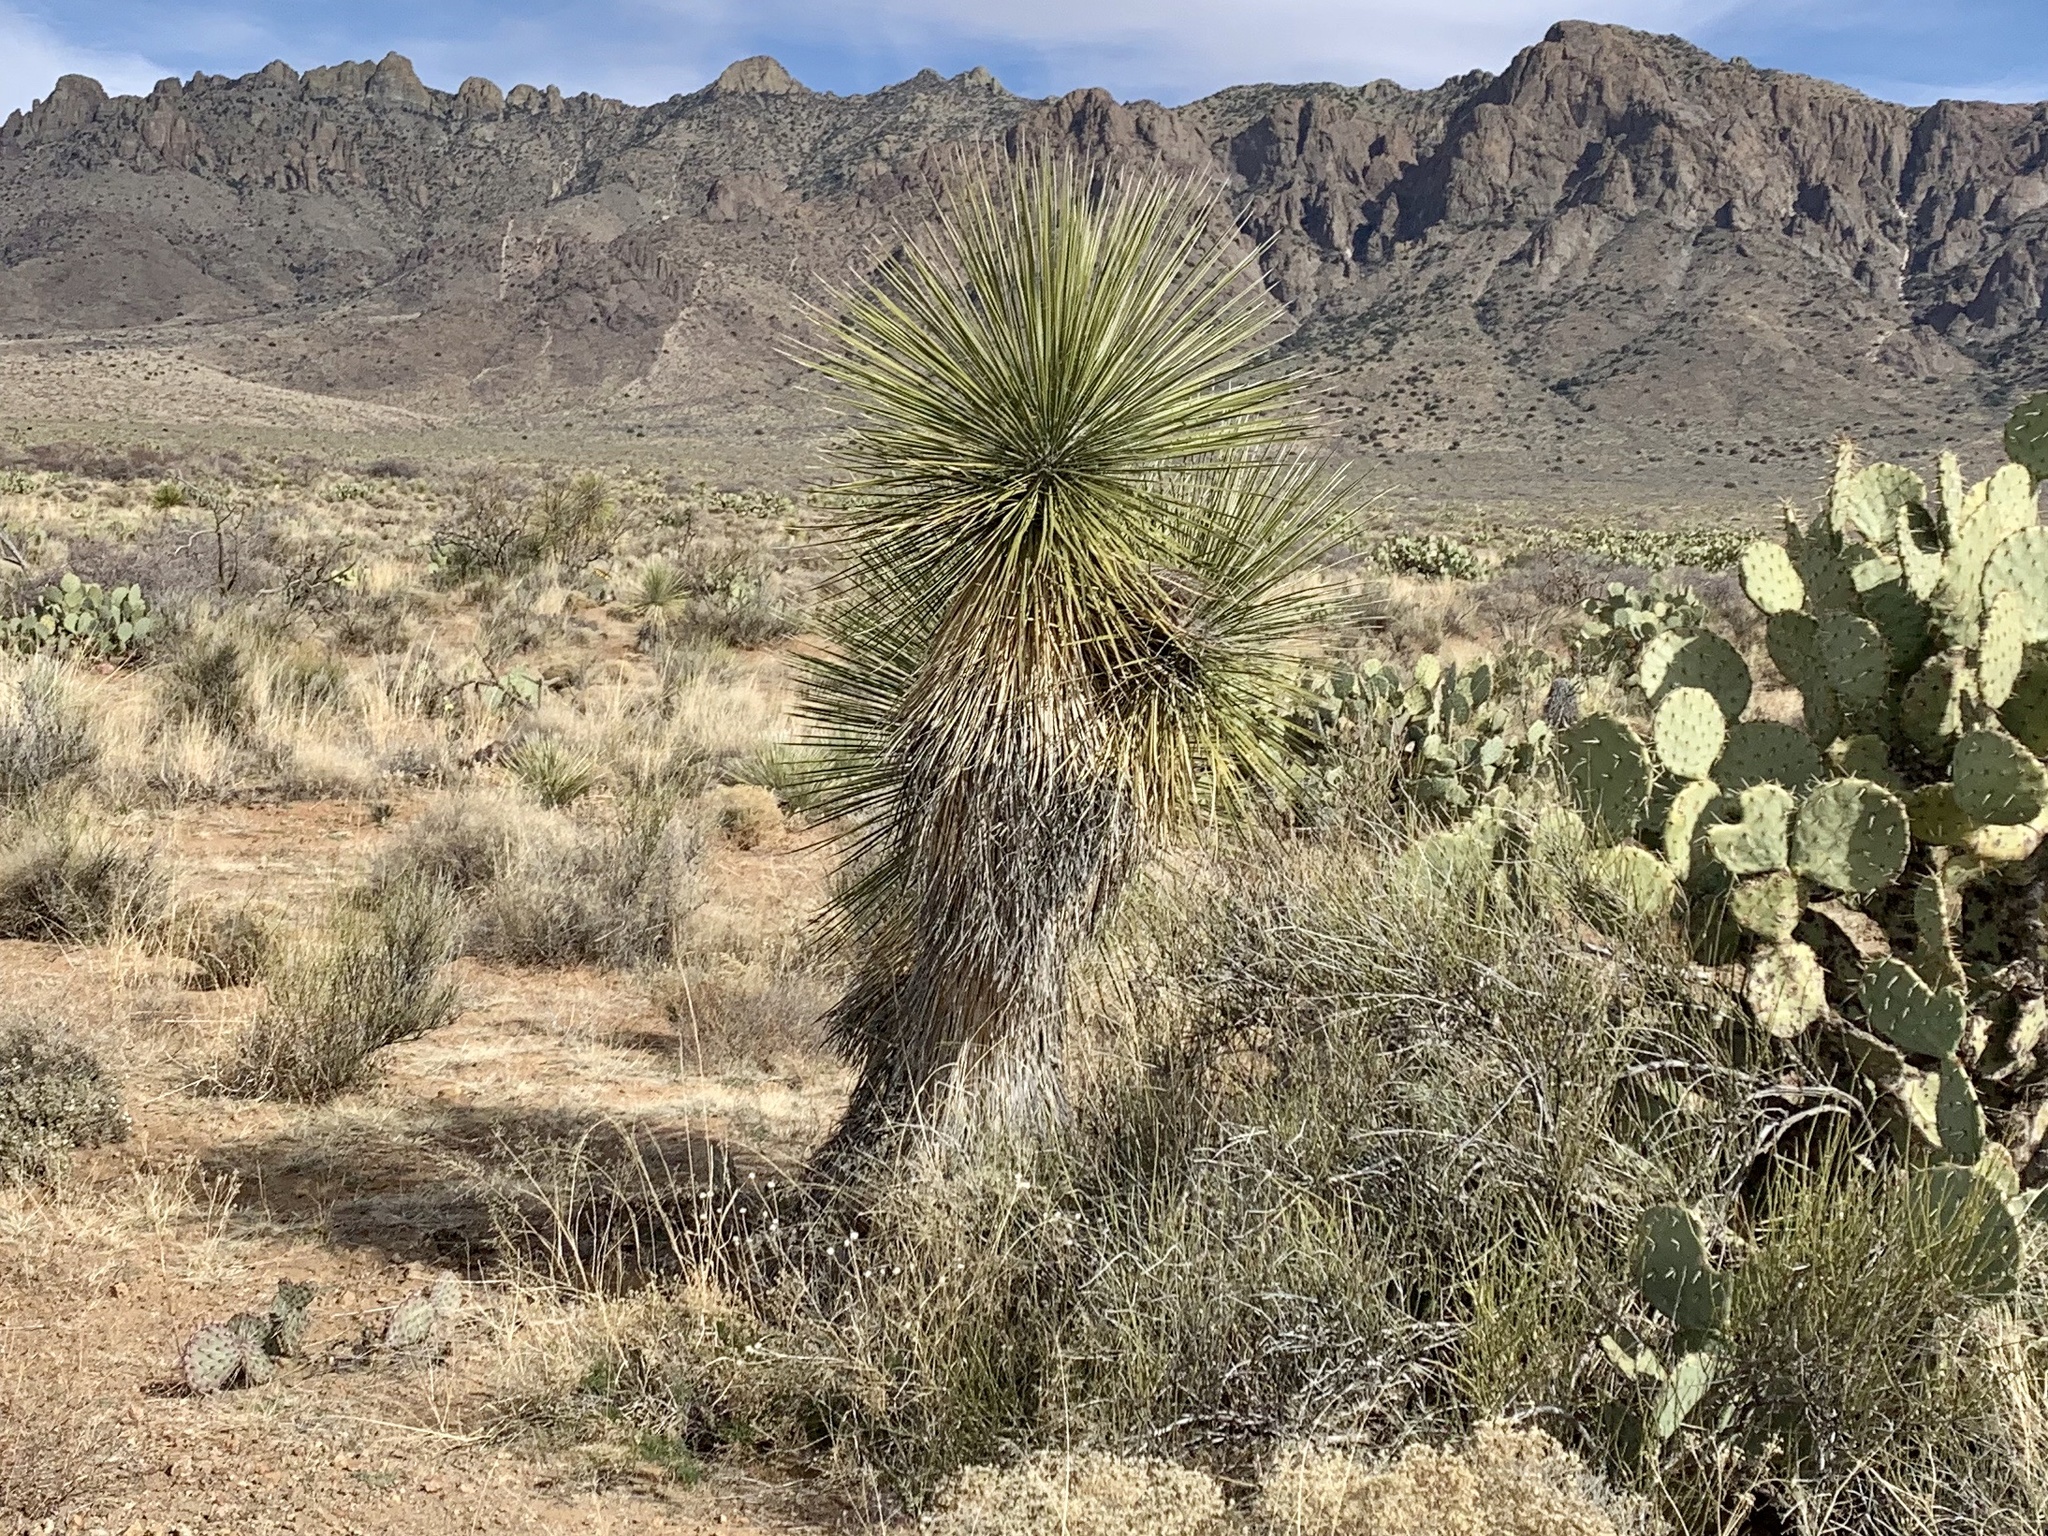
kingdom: Plantae
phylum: Tracheophyta
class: Liliopsida
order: Asparagales
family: Asparagaceae
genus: Yucca
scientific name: Yucca elata
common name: Palmella
